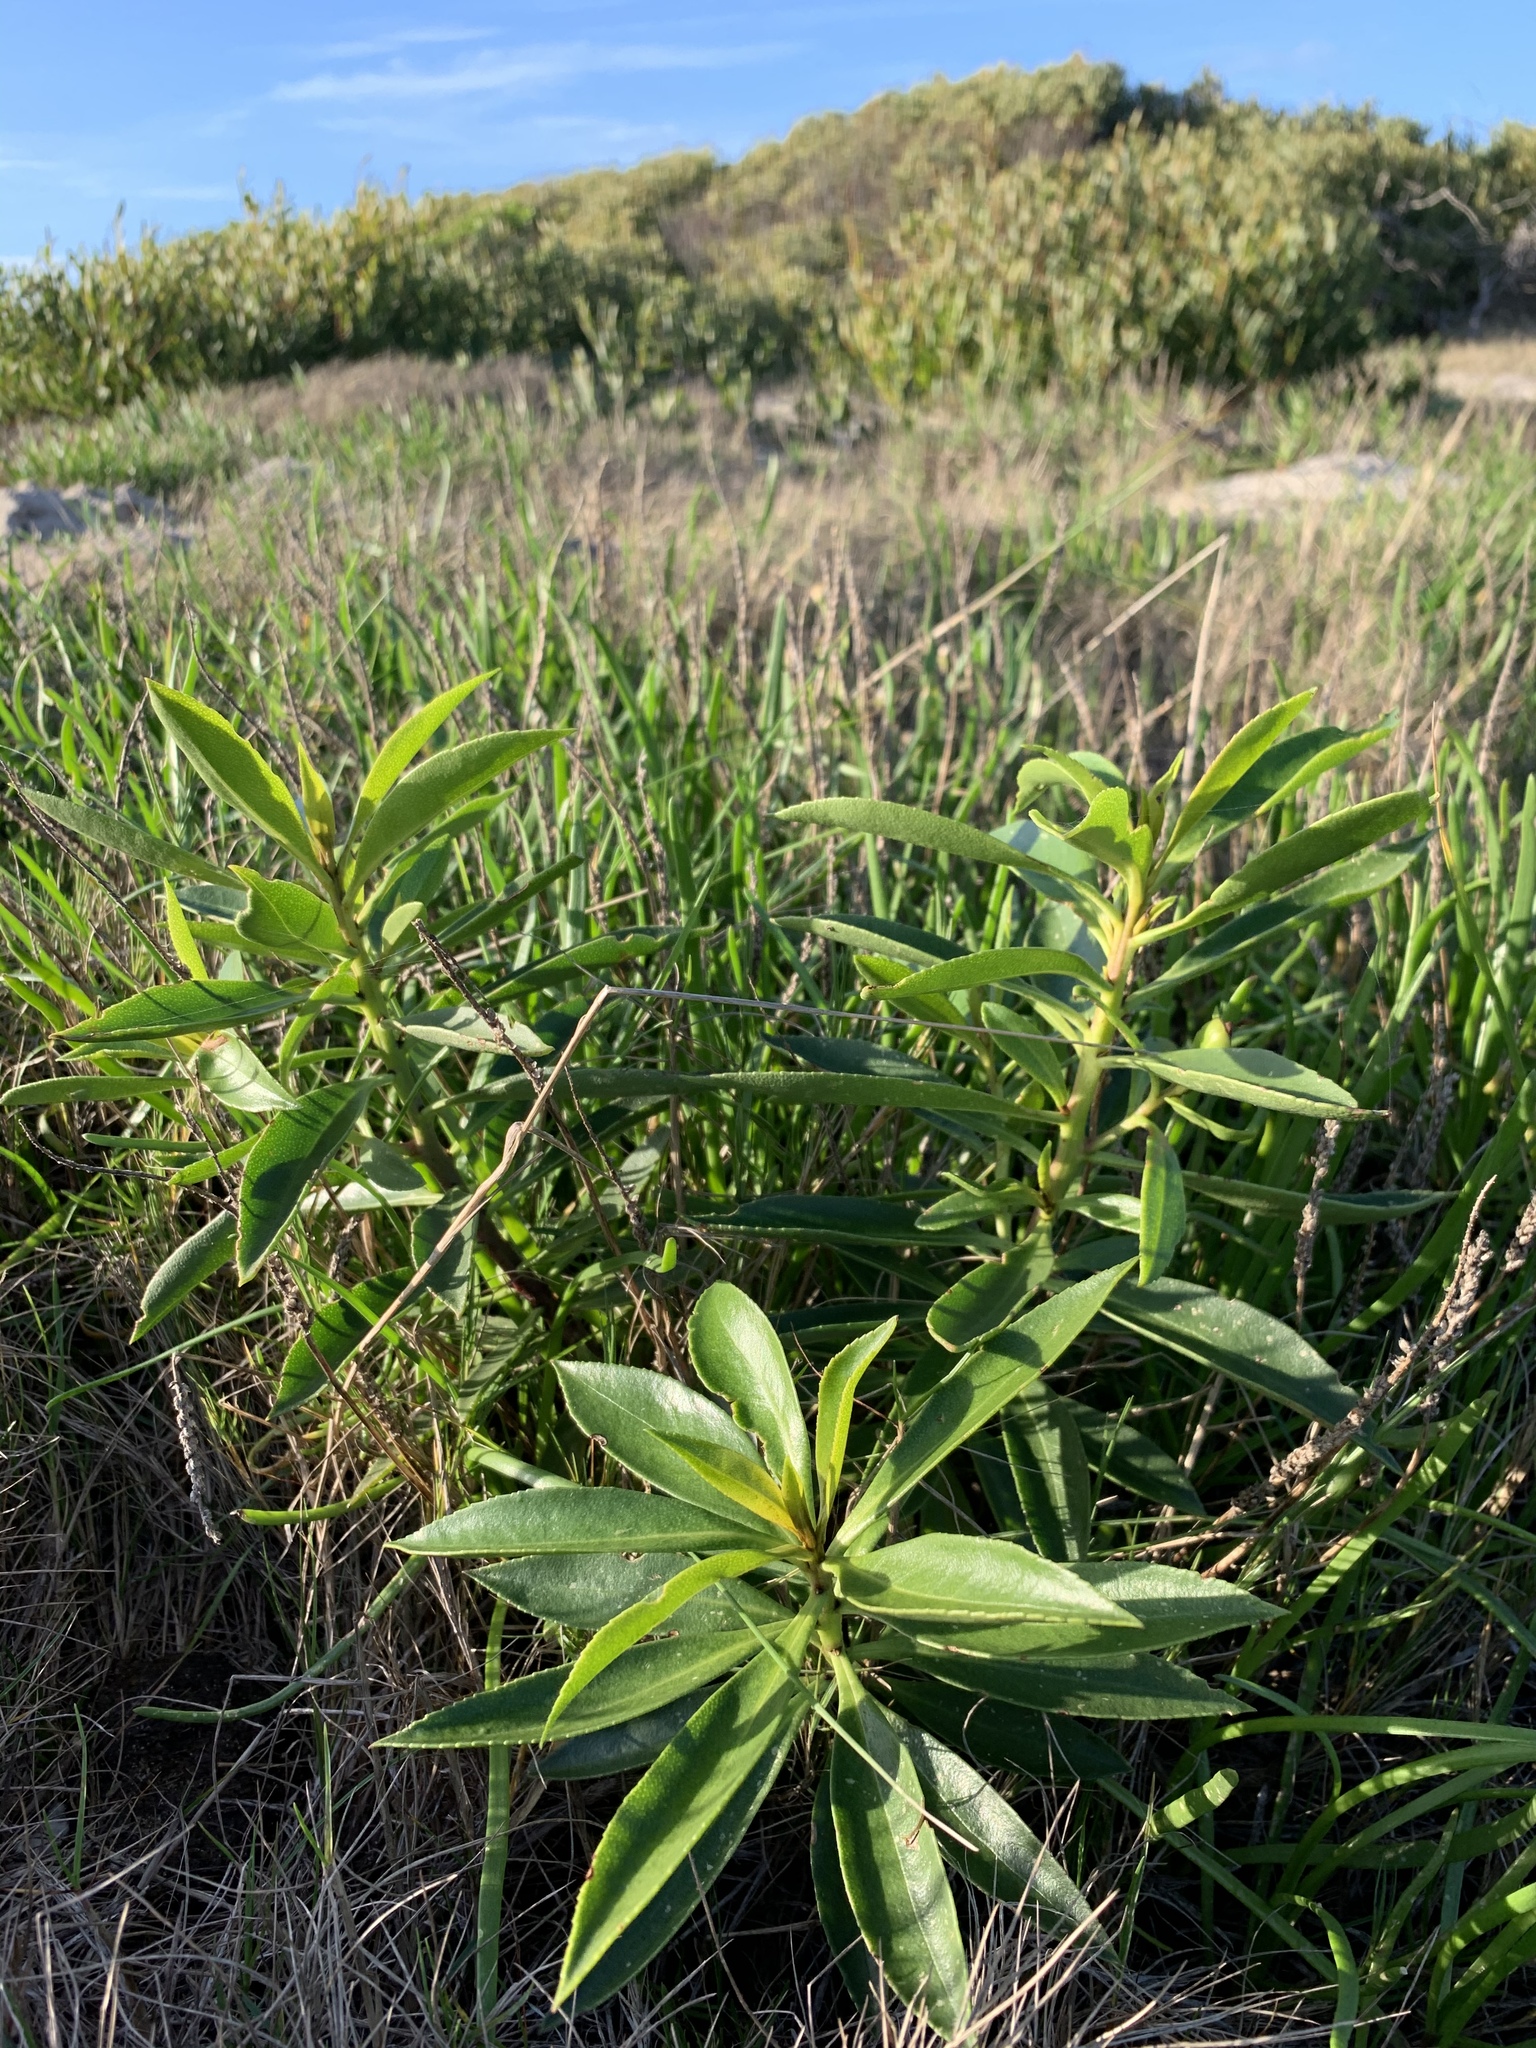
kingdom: Plantae
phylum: Tracheophyta
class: Magnoliopsida
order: Lamiales
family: Scrophulariaceae
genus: Myoporum
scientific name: Myoporum laetum
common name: Ngaio tree
